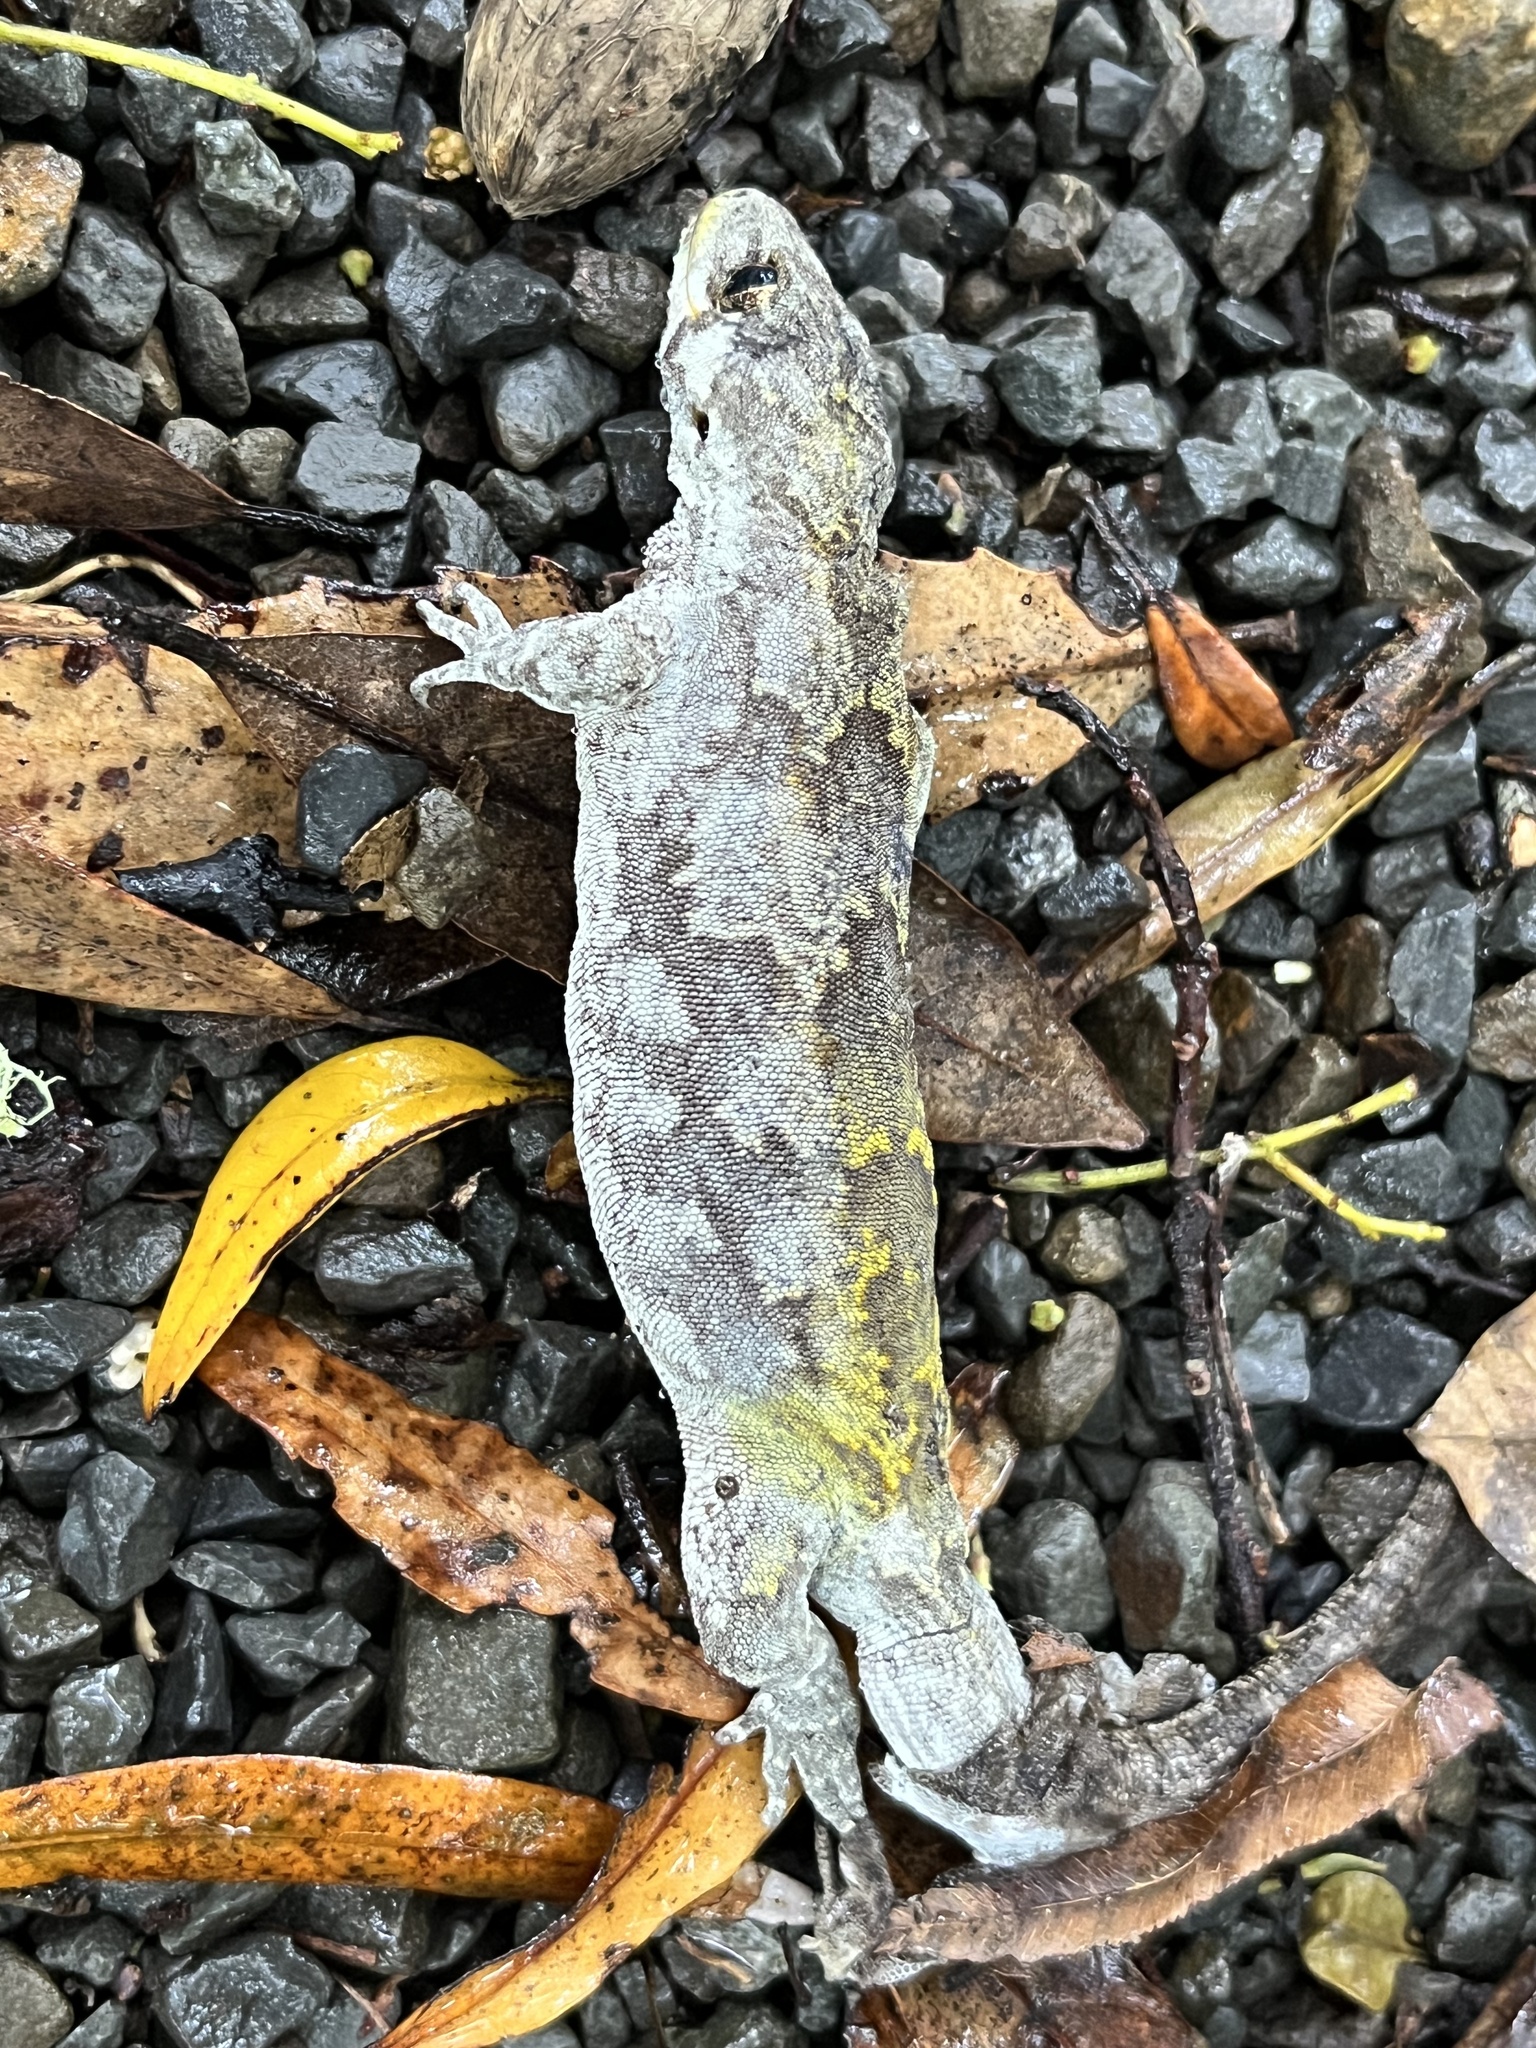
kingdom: Animalia
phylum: Chordata
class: Squamata
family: Diplodactylidae
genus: Mokopirirakau
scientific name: Mokopirirakau
